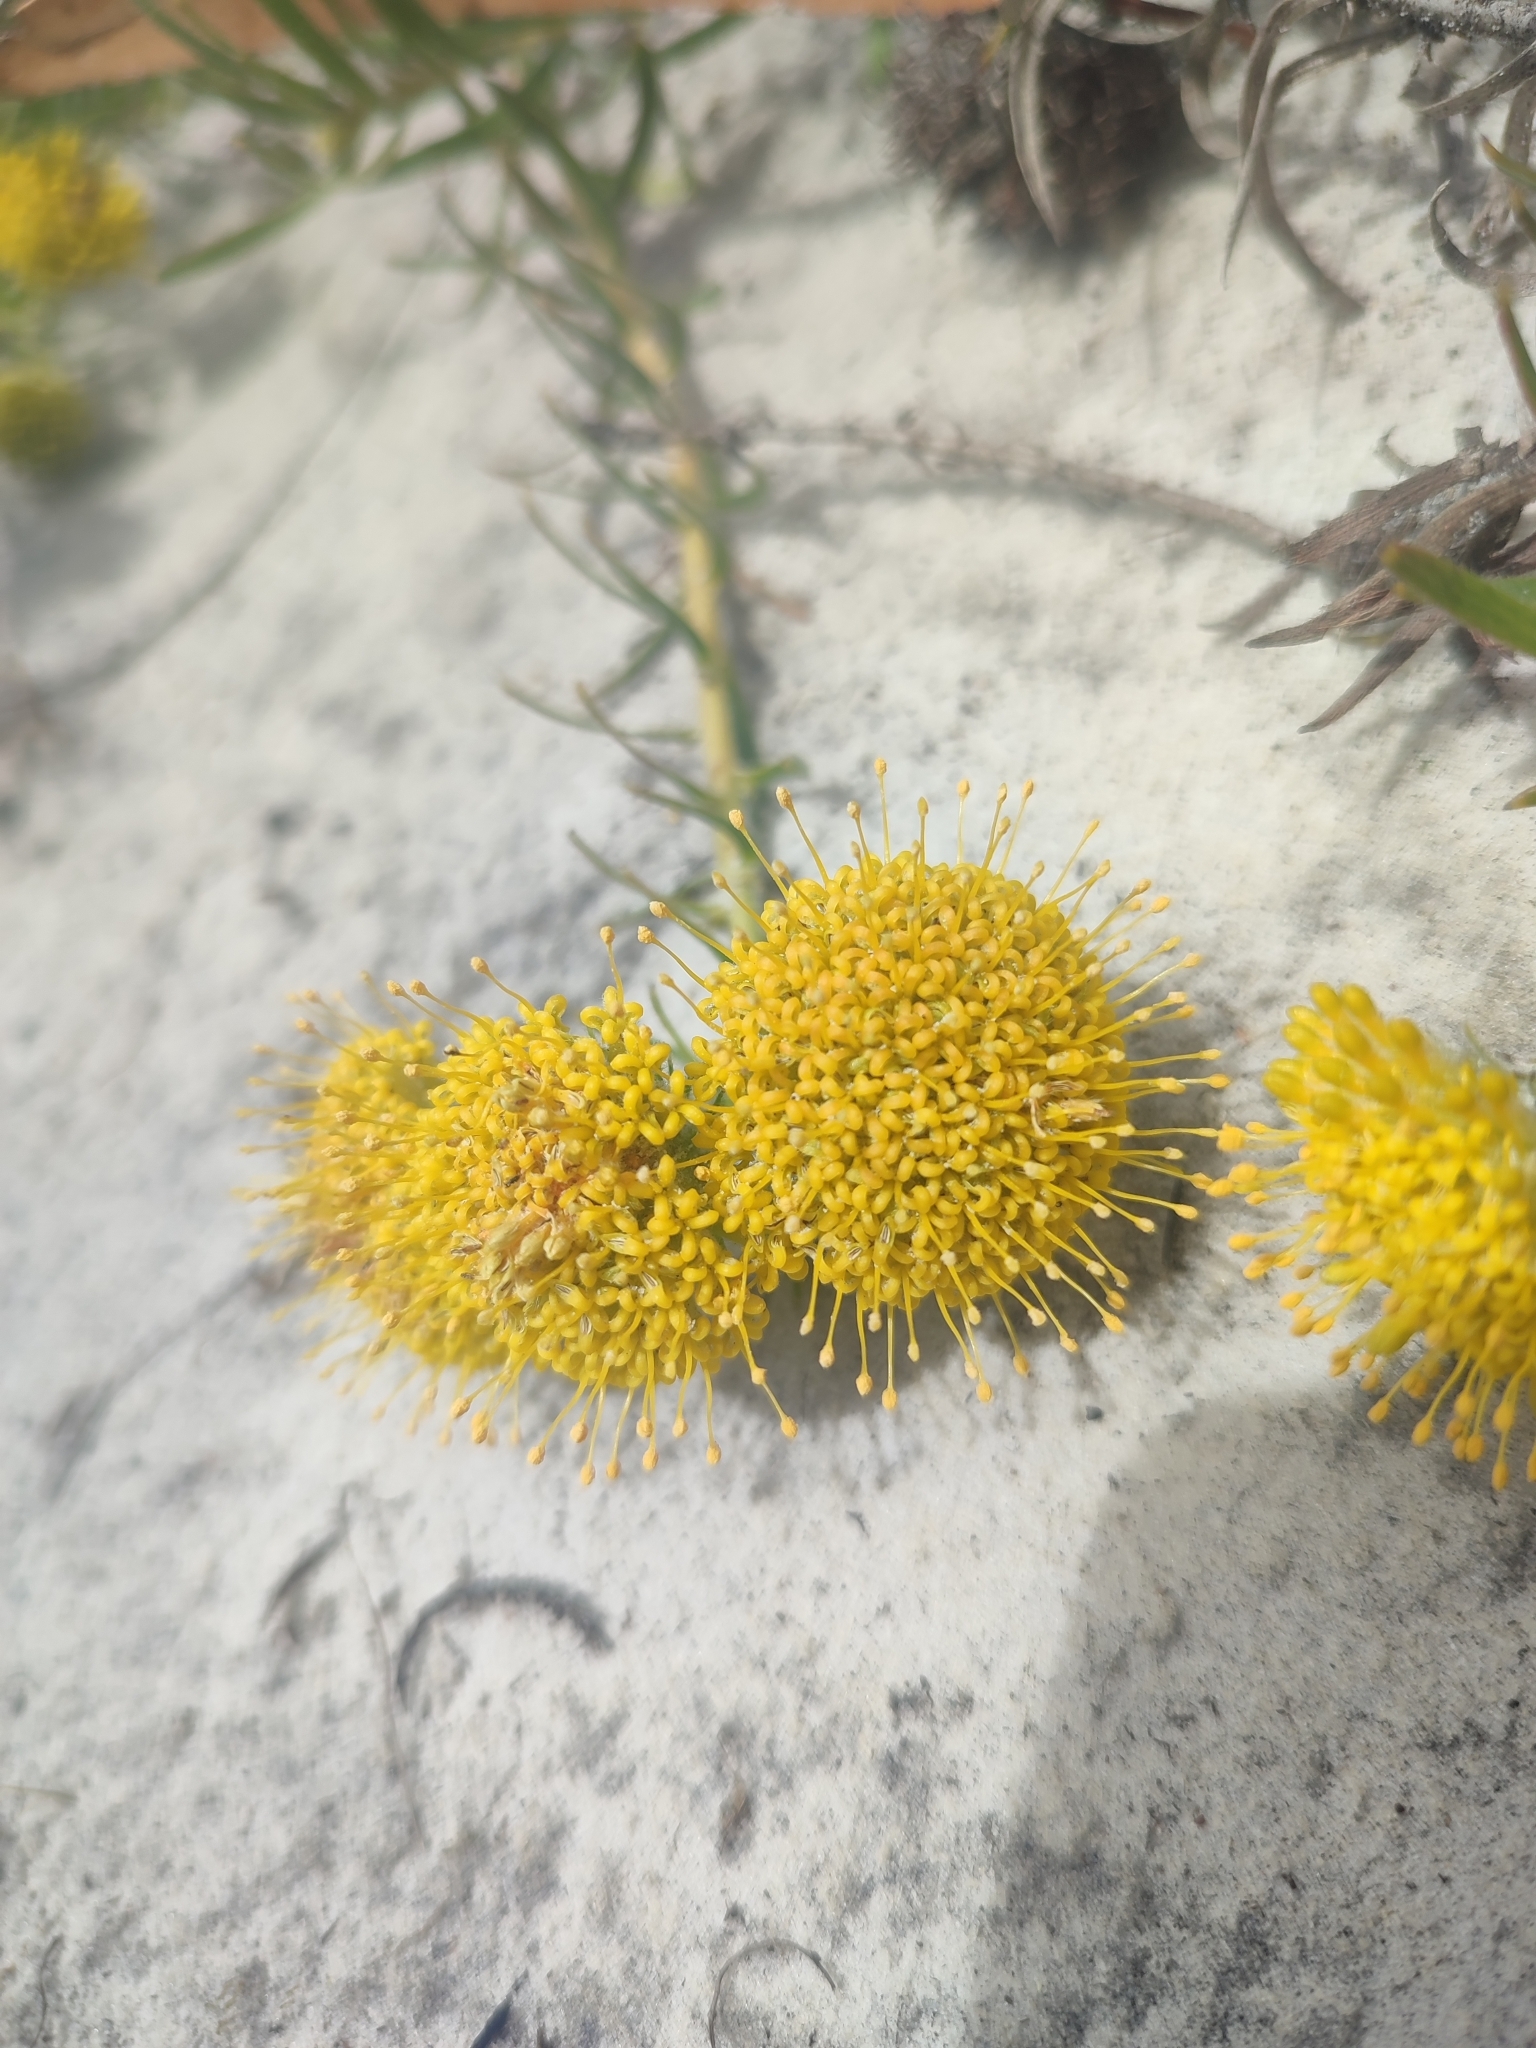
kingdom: Plantae
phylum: Tracheophyta
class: Magnoliopsida
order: Proteales
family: Proteaceae
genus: Leucospermum
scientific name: Leucospermum prostratum
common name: Yellow-trailing pincushion
